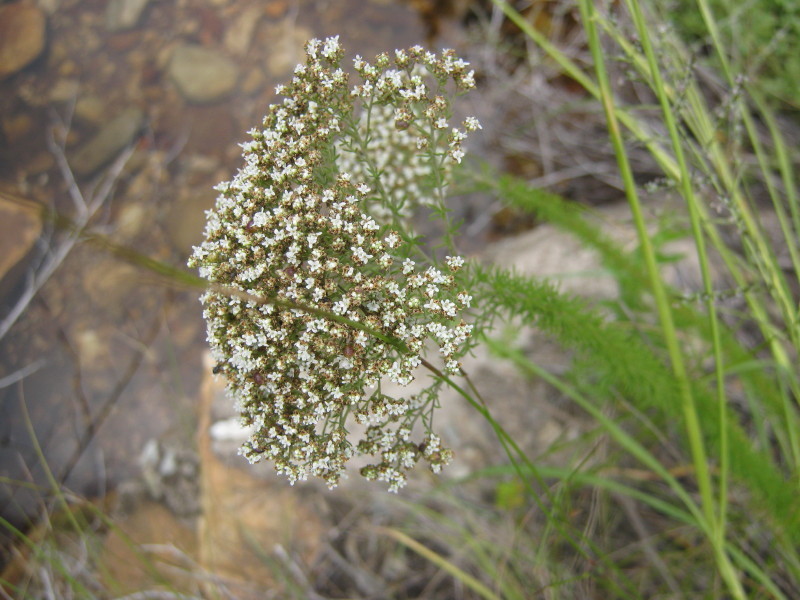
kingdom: Plantae
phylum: Tracheophyta
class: Magnoliopsida
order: Lamiales
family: Scrophulariaceae
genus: Selago
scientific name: Selago corymbosa
